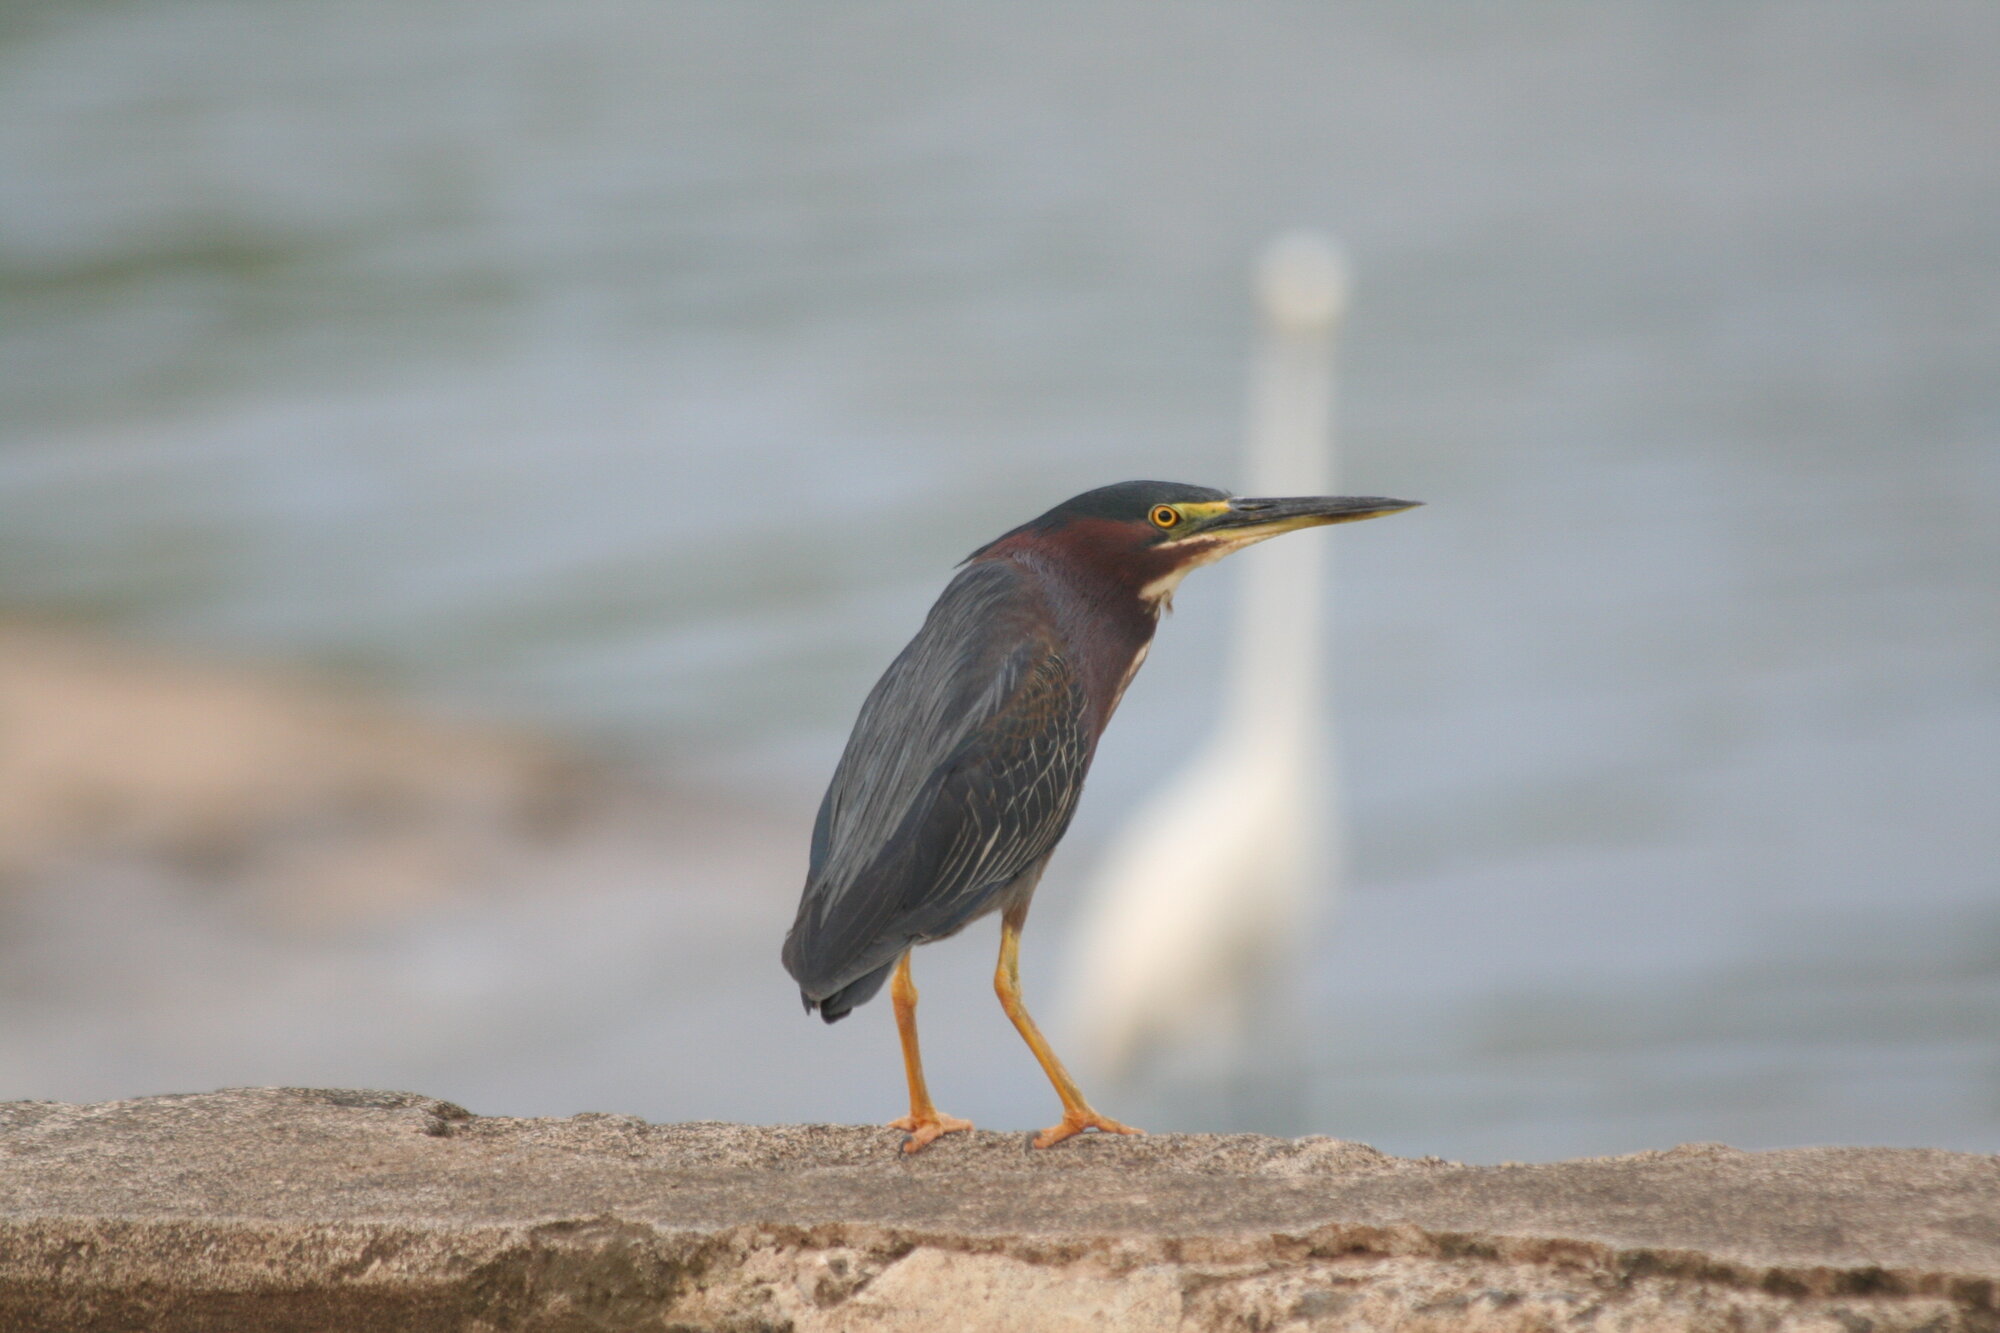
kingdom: Animalia
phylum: Chordata
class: Aves
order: Pelecaniformes
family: Ardeidae
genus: Butorides
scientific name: Butorides virescens
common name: Green heron
